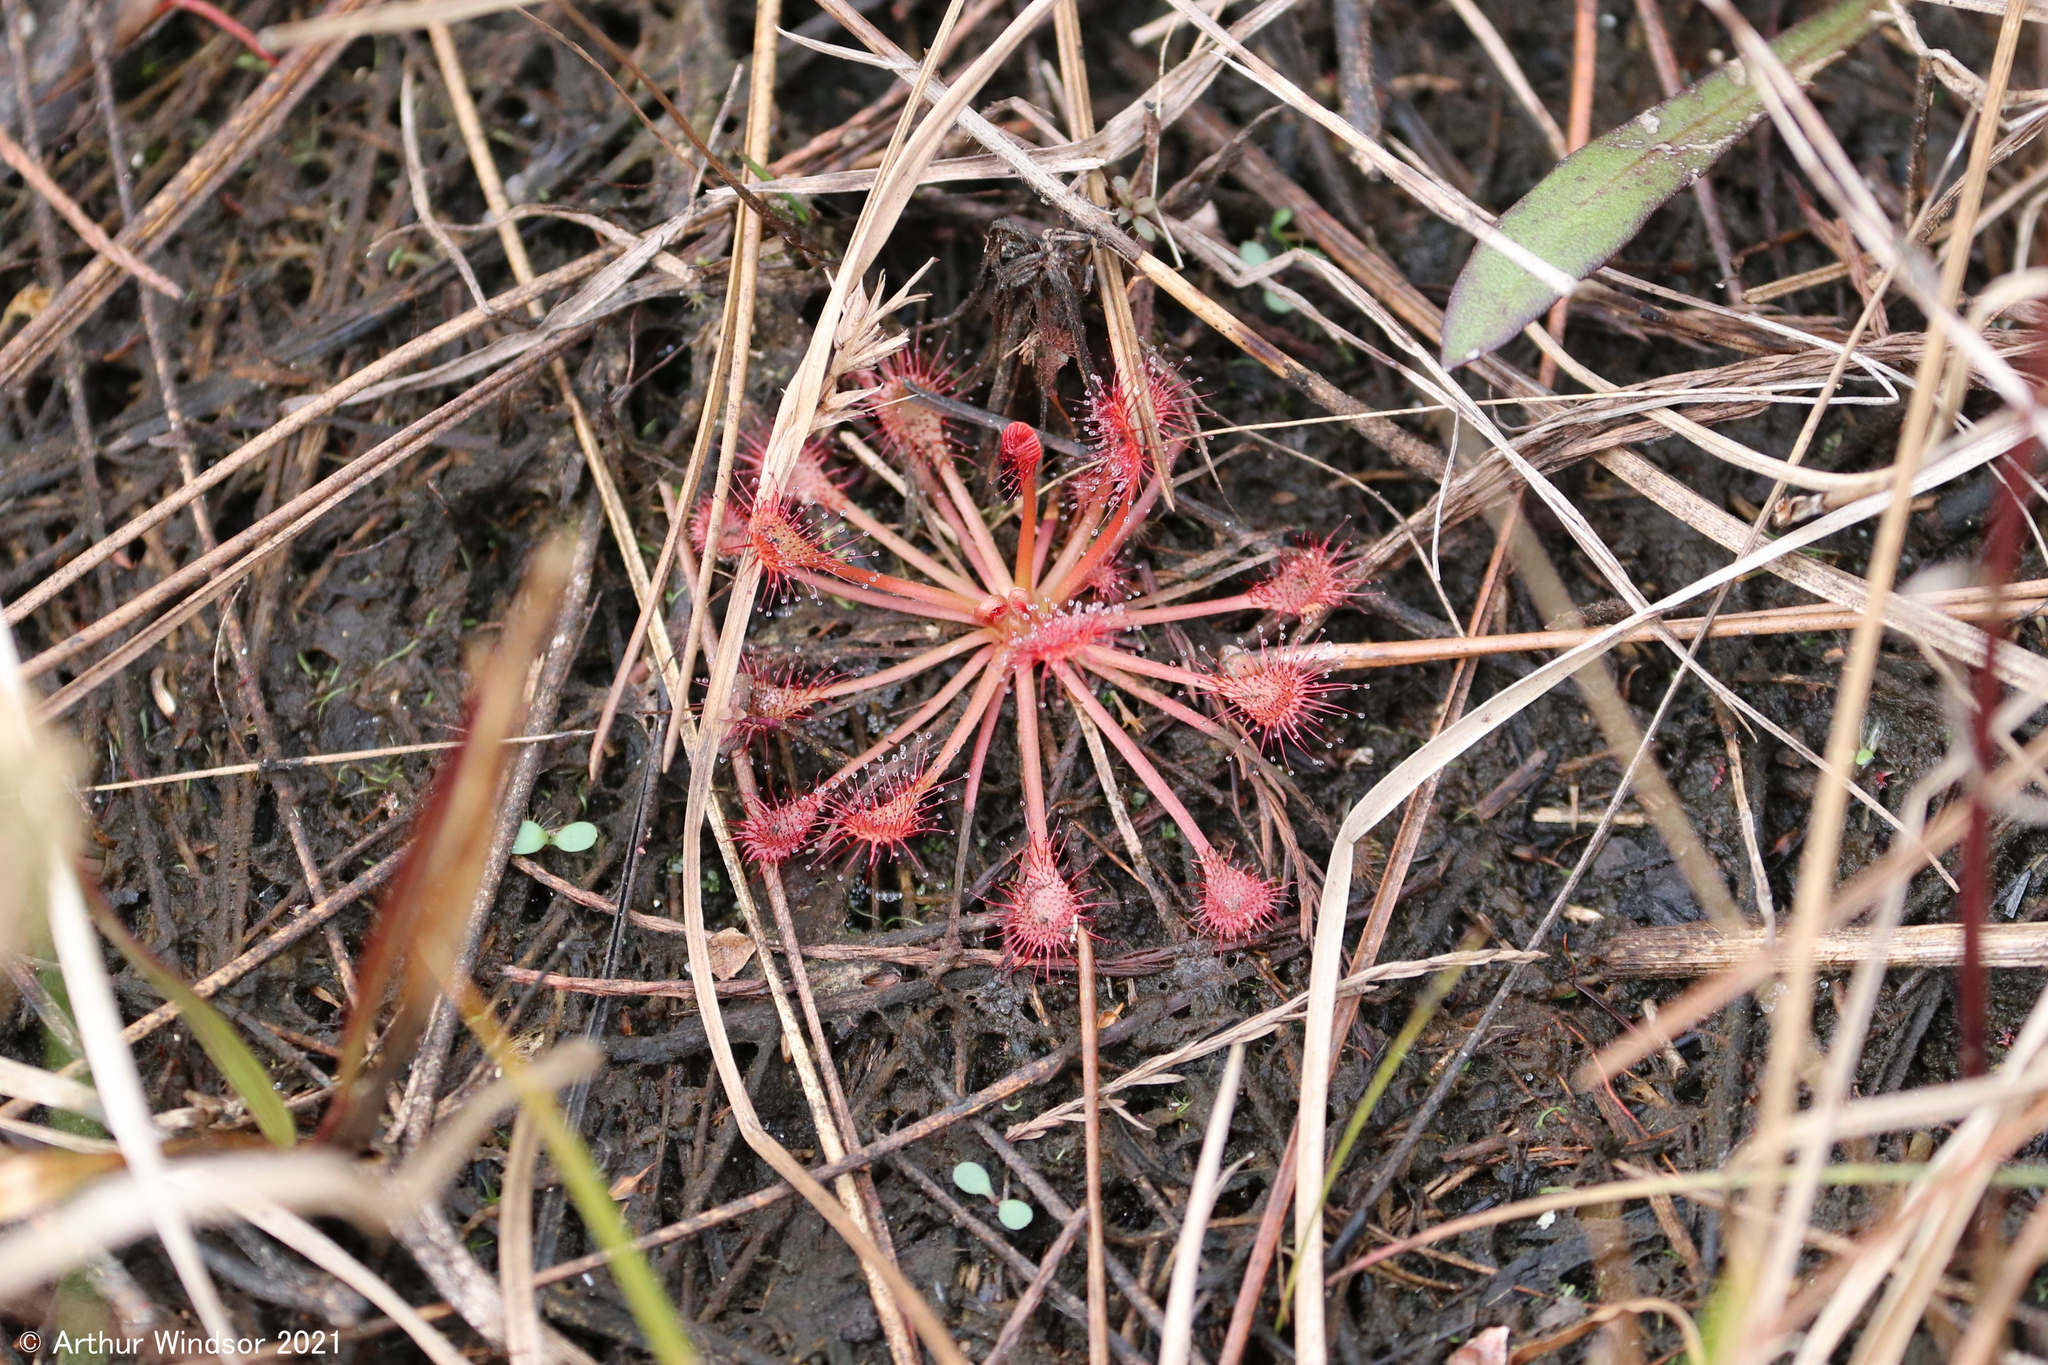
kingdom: Plantae
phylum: Tracheophyta
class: Magnoliopsida
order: Caryophyllales
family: Droseraceae
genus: Drosera
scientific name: Drosera capillaris
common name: Pink sundew
